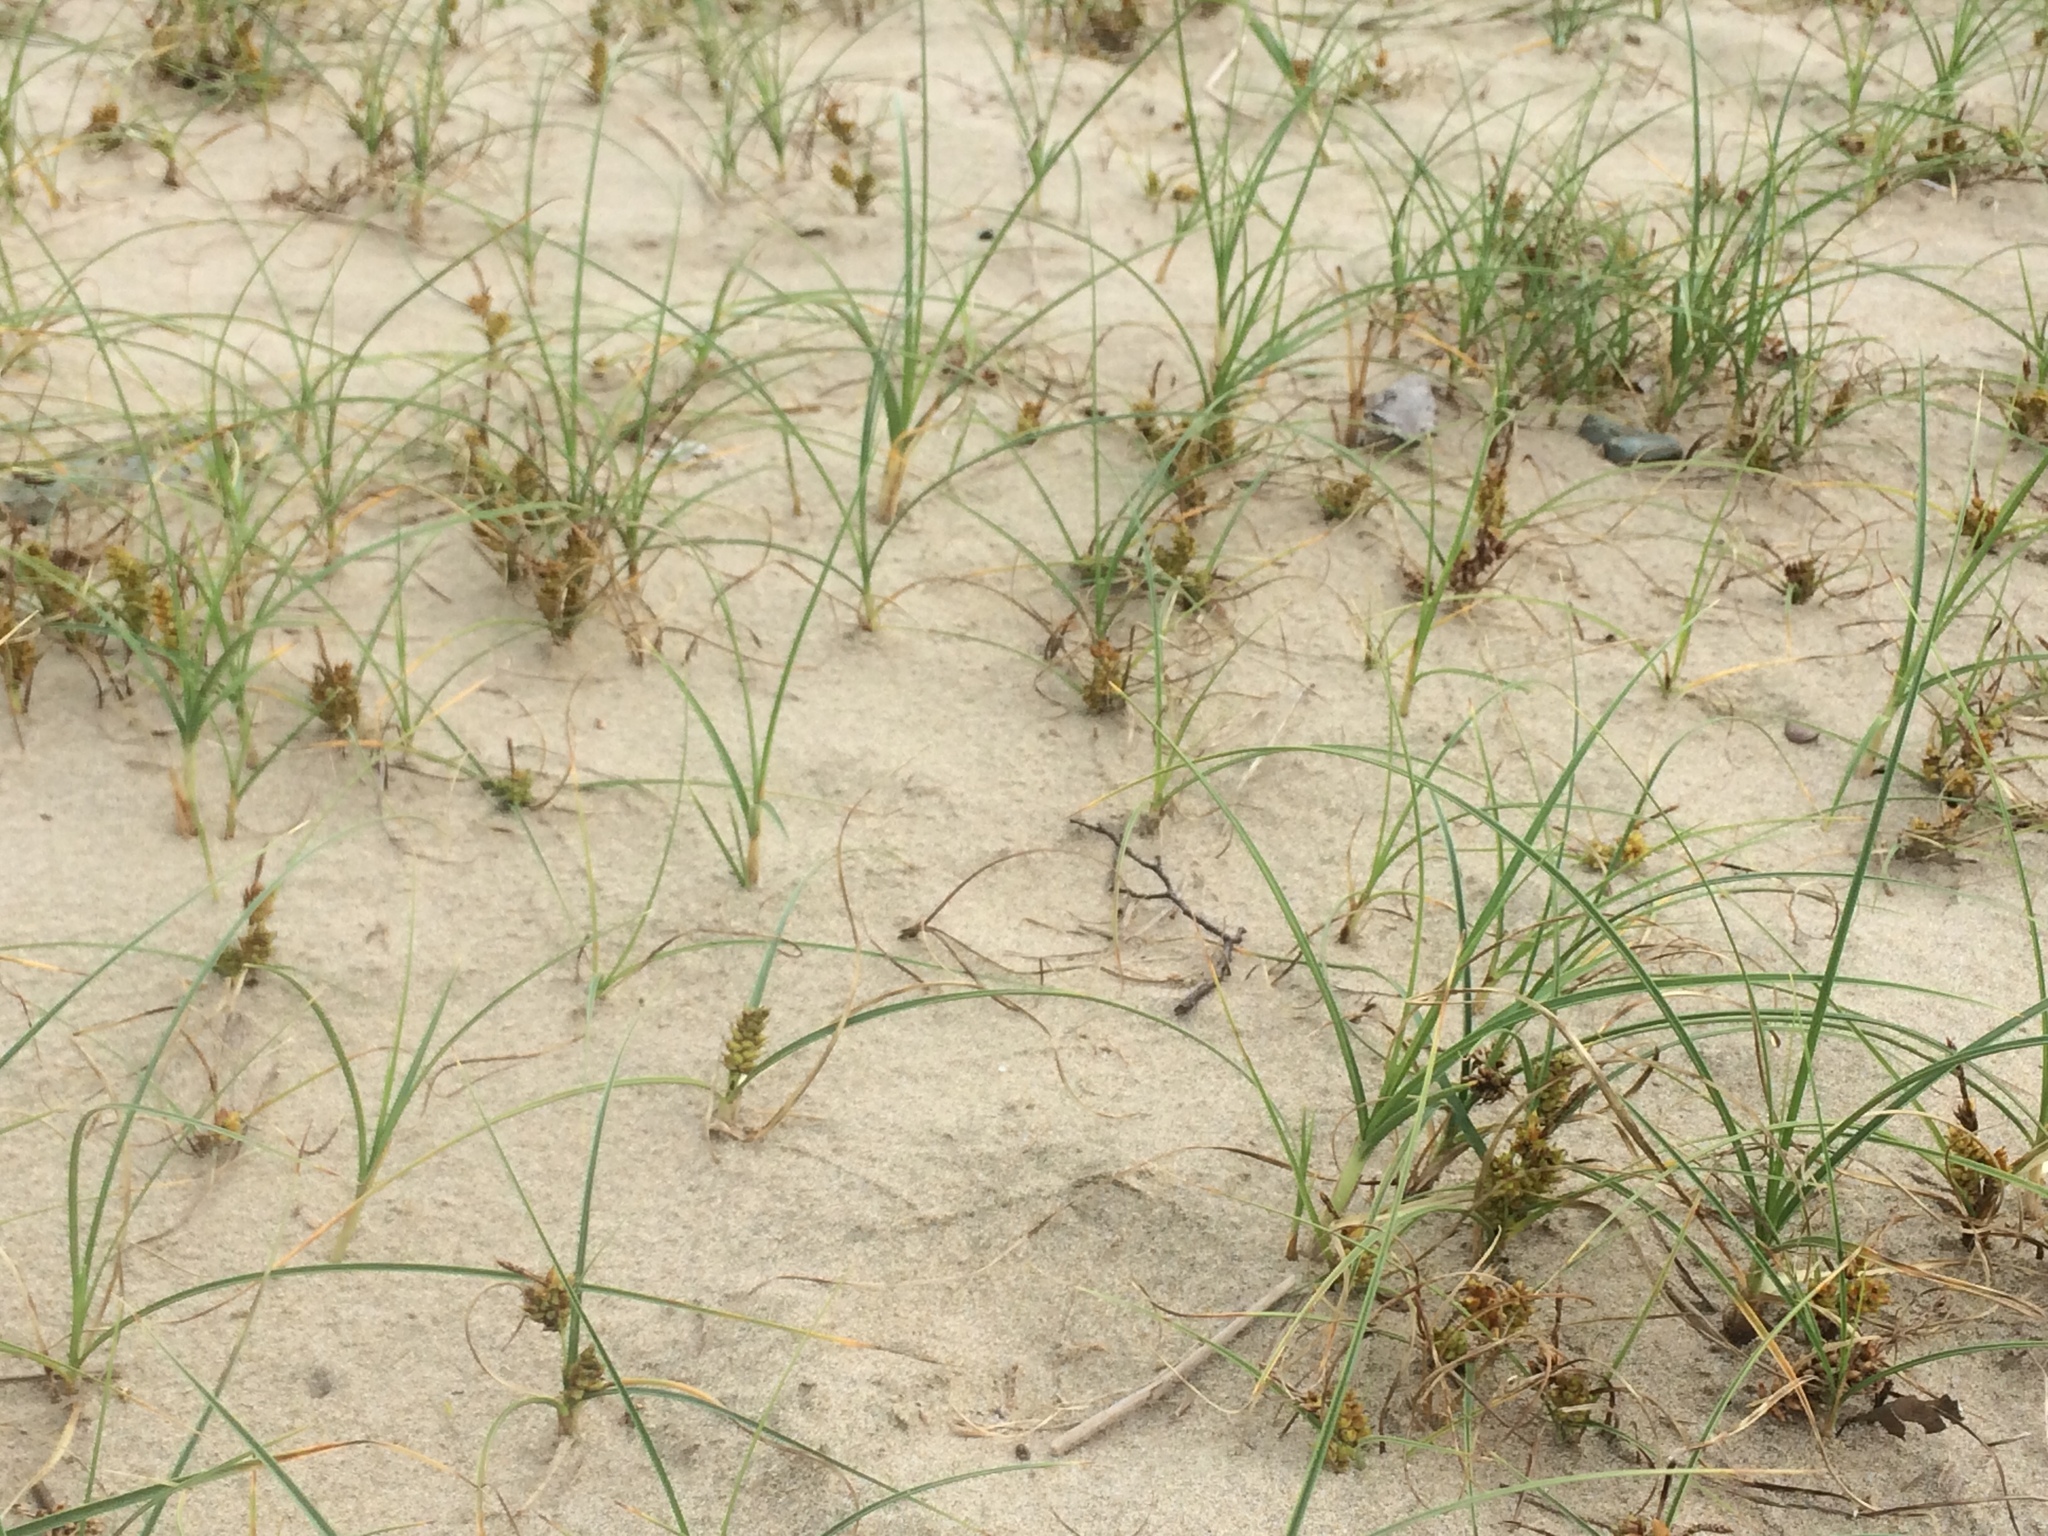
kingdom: Plantae
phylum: Tracheophyta
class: Liliopsida
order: Poales
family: Cyperaceae
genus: Carex
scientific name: Carex pumila
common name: Dwarf sedge
